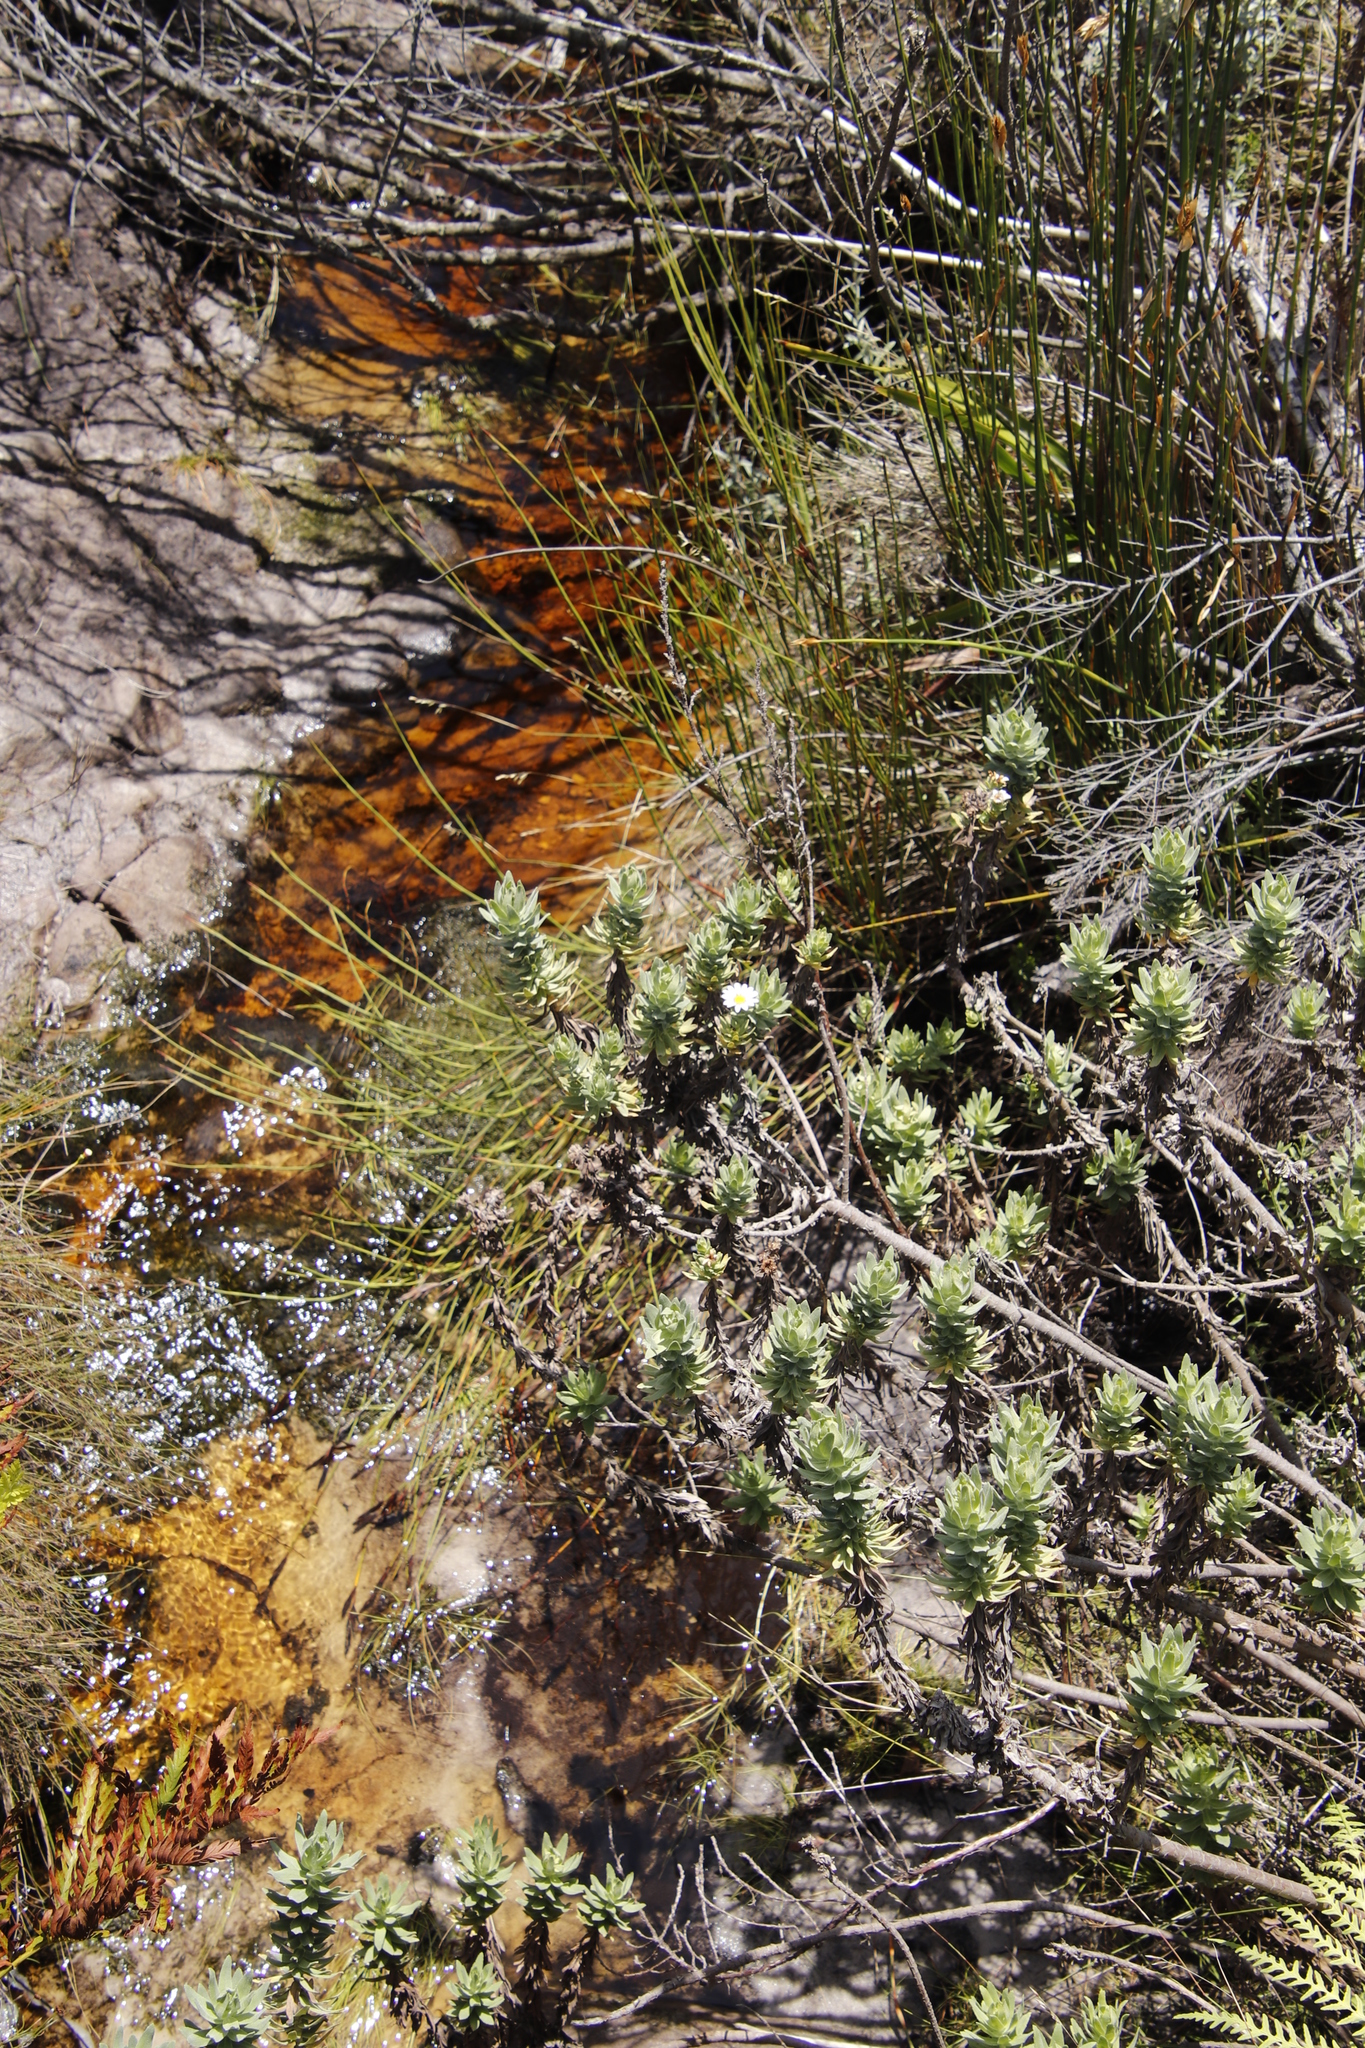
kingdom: Plantae
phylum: Tracheophyta
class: Magnoliopsida
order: Asterales
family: Asteraceae
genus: Osmitopsis
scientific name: Osmitopsis asteriscoides
